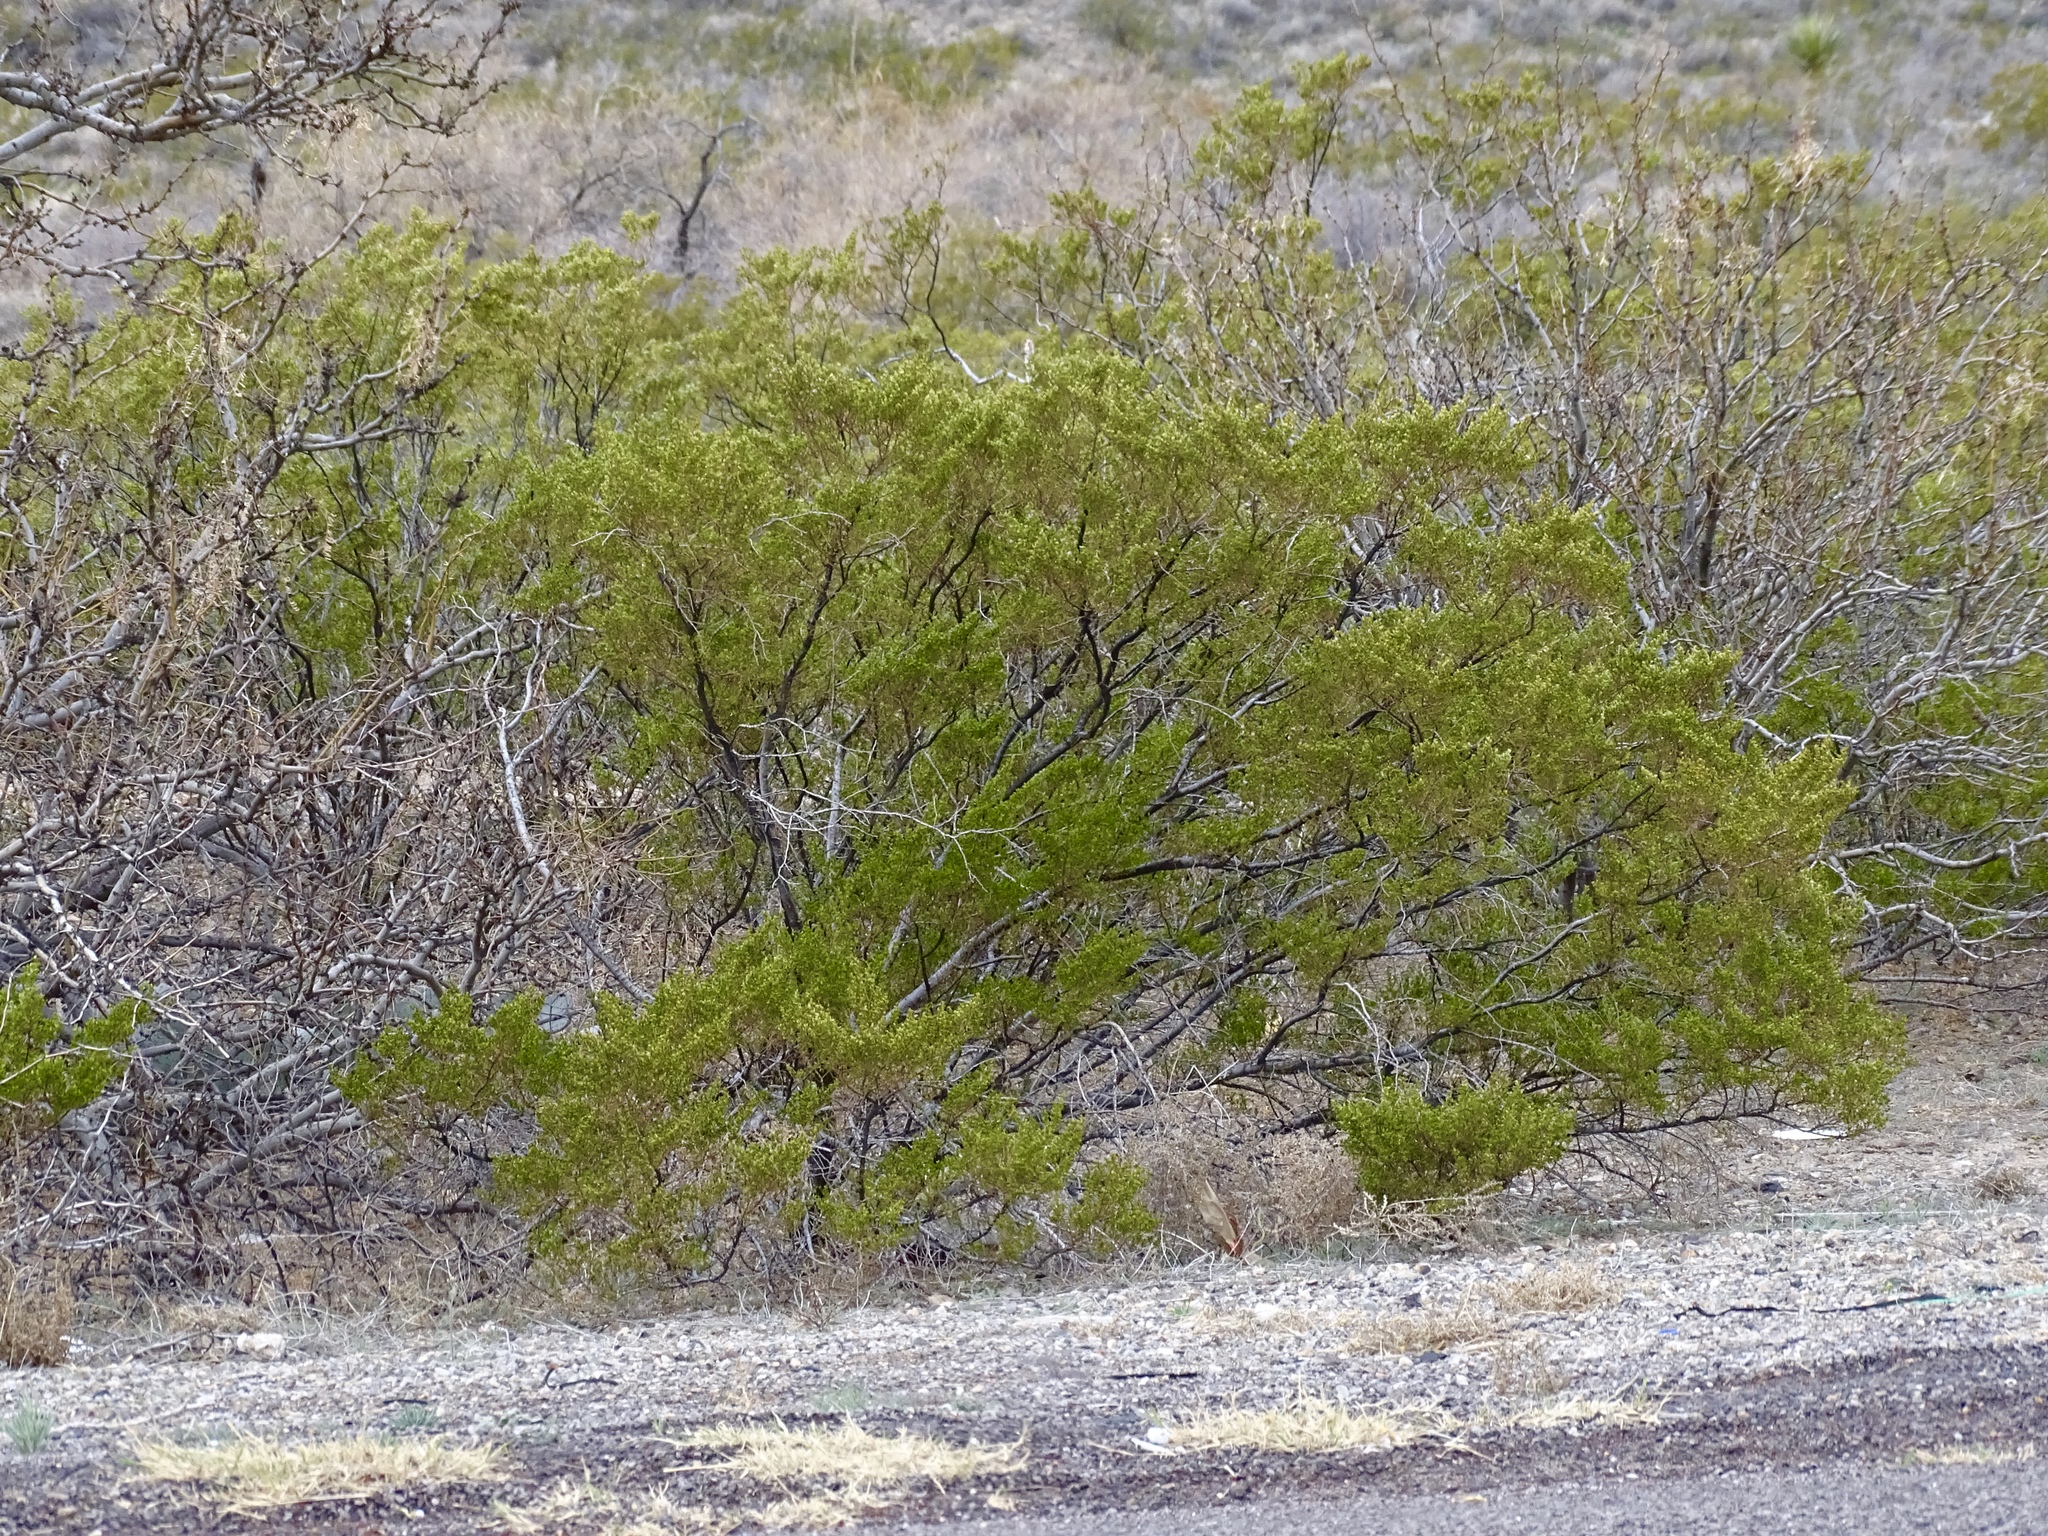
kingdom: Plantae
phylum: Tracheophyta
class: Magnoliopsida
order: Zygophyllales
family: Zygophyllaceae
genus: Larrea
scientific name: Larrea tridentata
